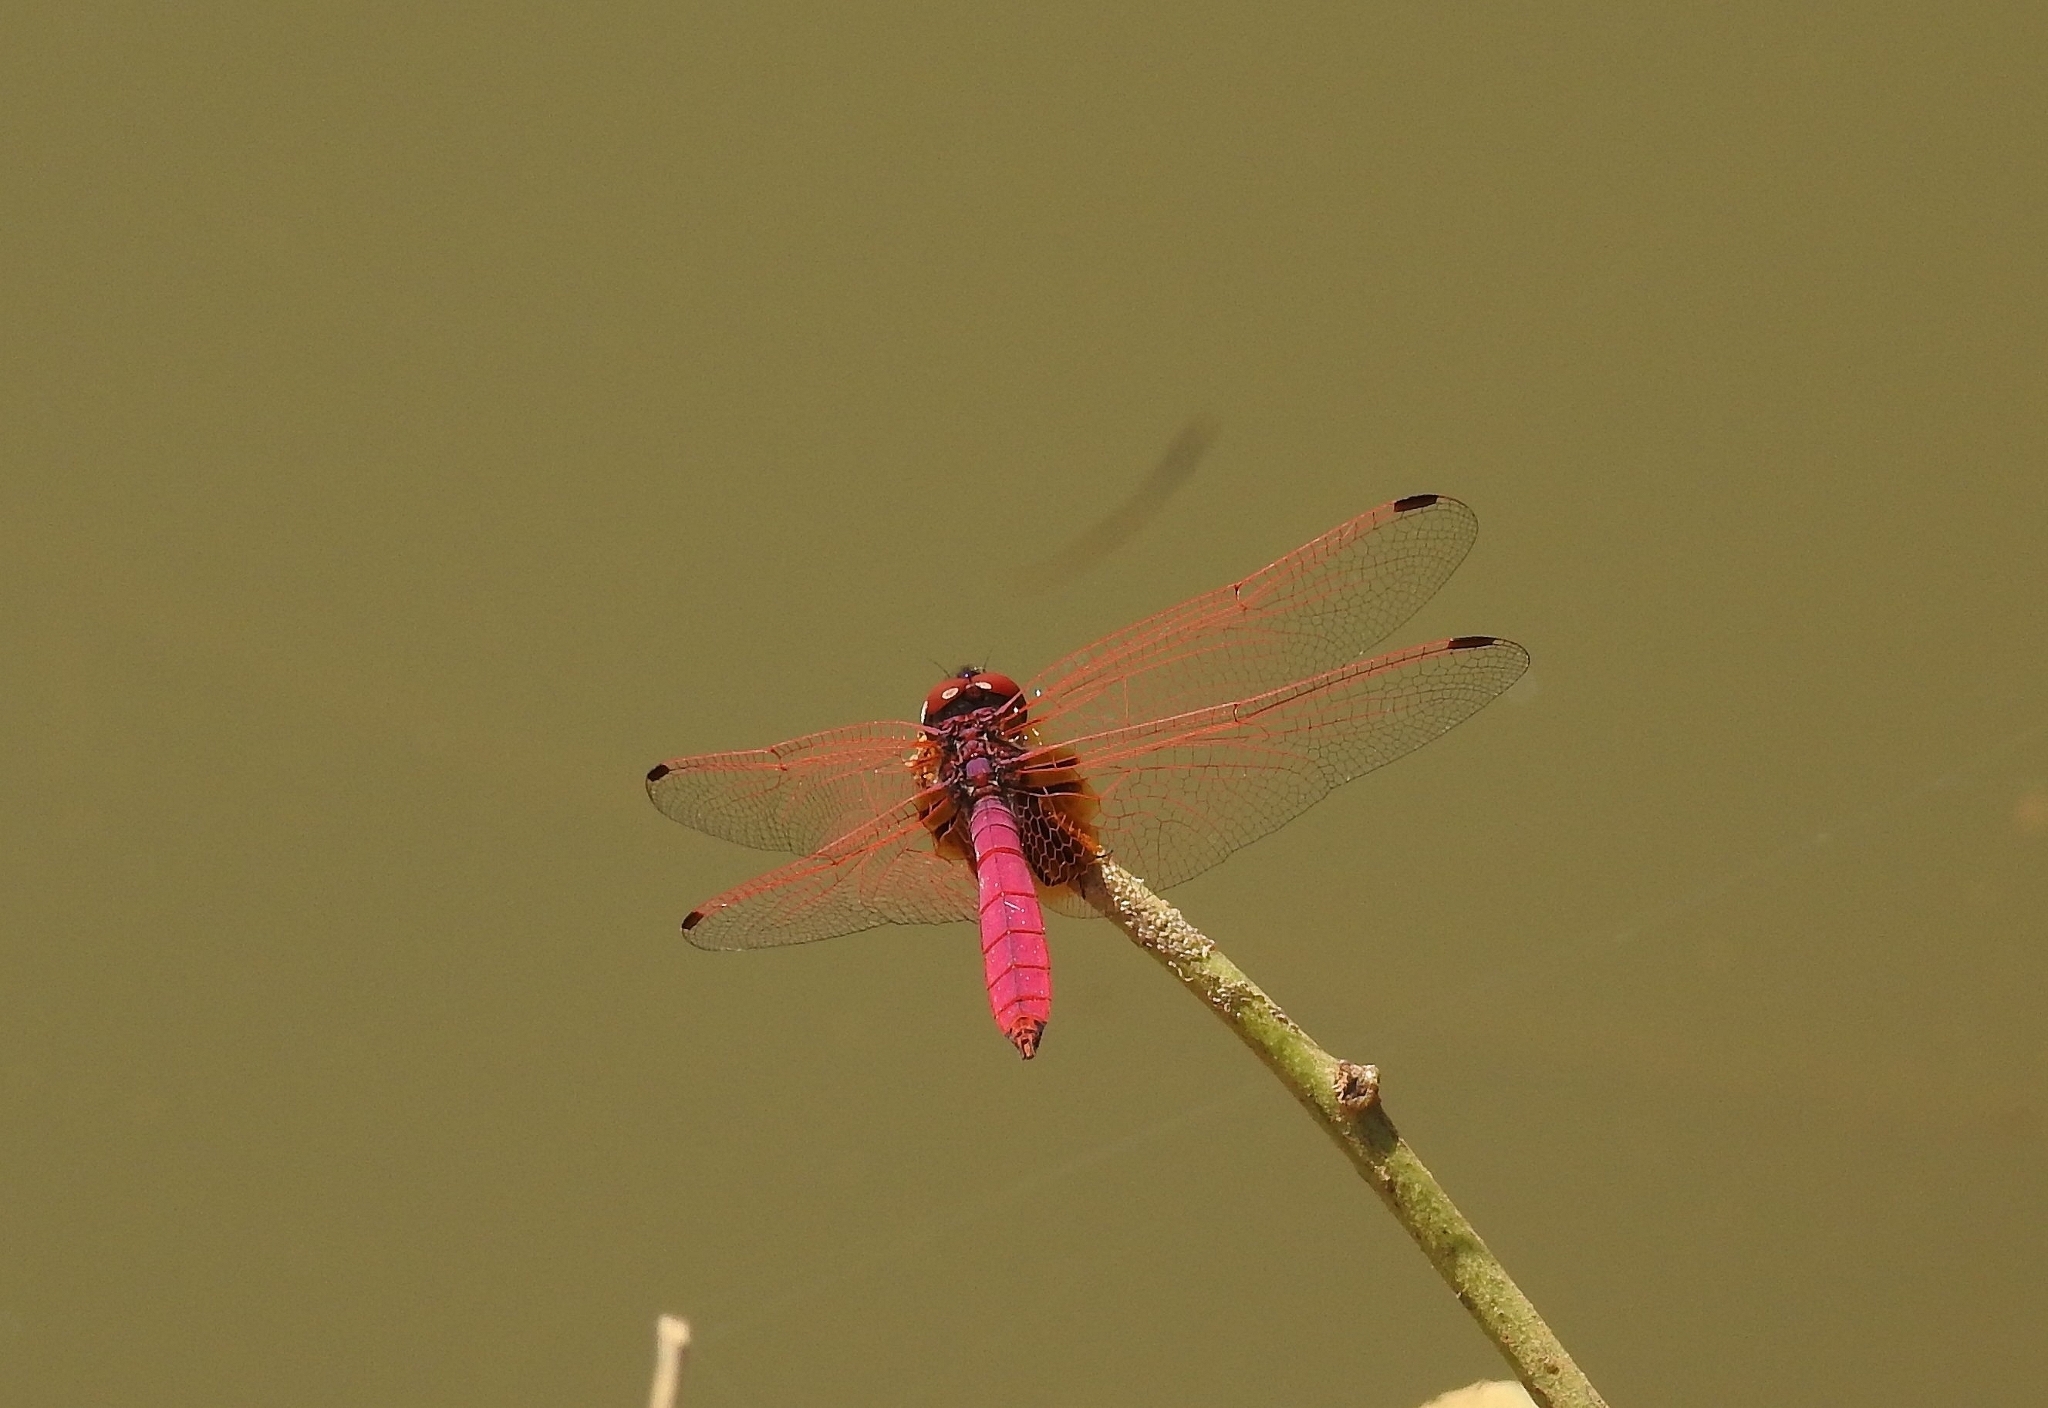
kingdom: Animalia
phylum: Arthropoda
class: Insecta
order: Odonata
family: Libellulidae
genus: Trithemis
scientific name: Trithemis aurora
